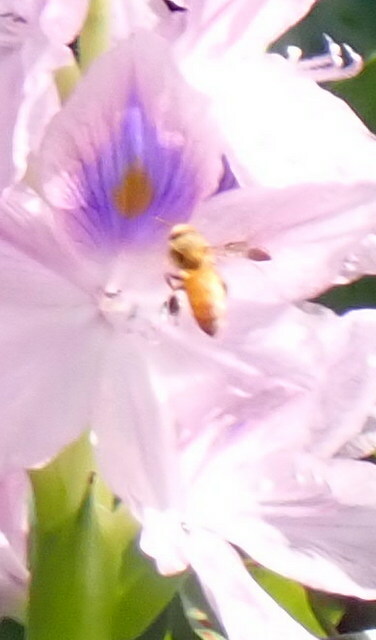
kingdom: Animalia
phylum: Arthropoda
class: Insecta
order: Hymenoptera
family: Apidae
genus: Apis
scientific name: Apis mellifera
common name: Honey bee
